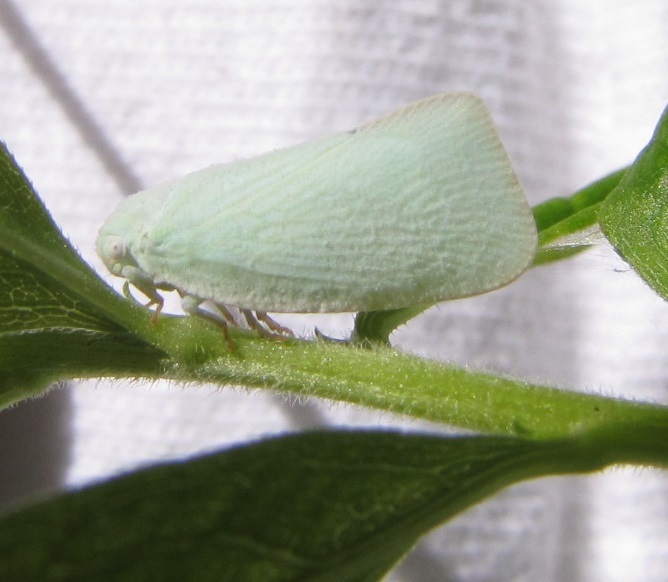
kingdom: Animalia
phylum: Arthropoda
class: Insecta
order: Hemiptera
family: Flatidae
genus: Flatormenis
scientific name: Flatormenis proxima
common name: Northern flatid planthopper
